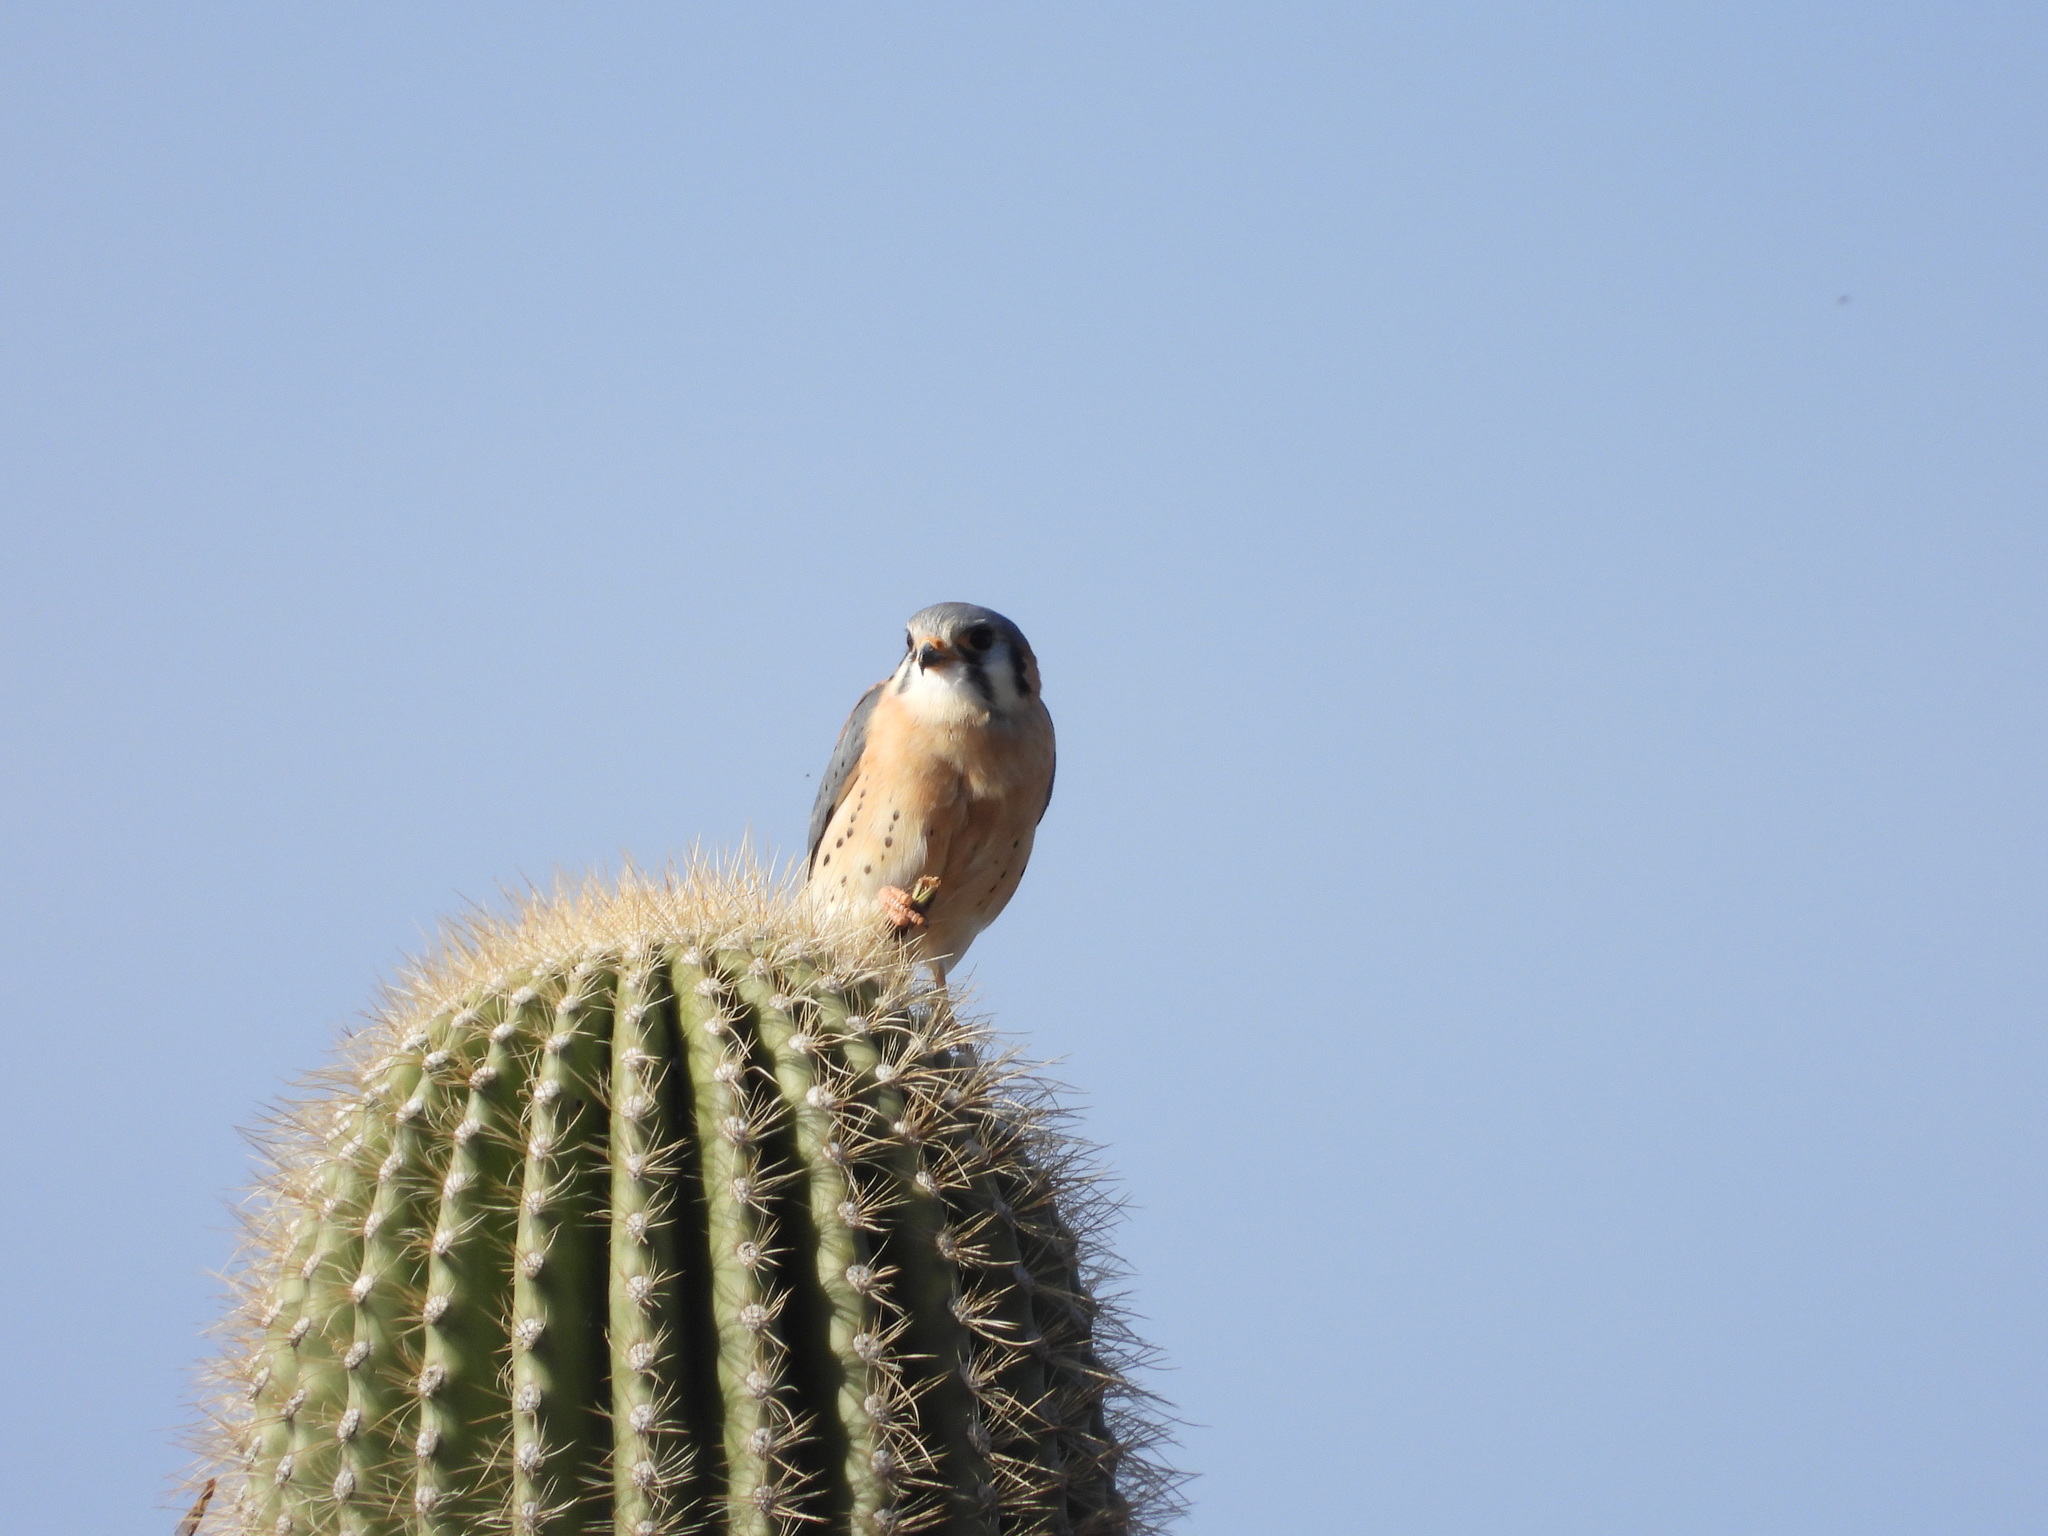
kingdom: Animalia
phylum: Chordata
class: Aves
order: Falconiformes
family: Falconidae
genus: Falco
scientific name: Falco sparverius
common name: American kestrel
